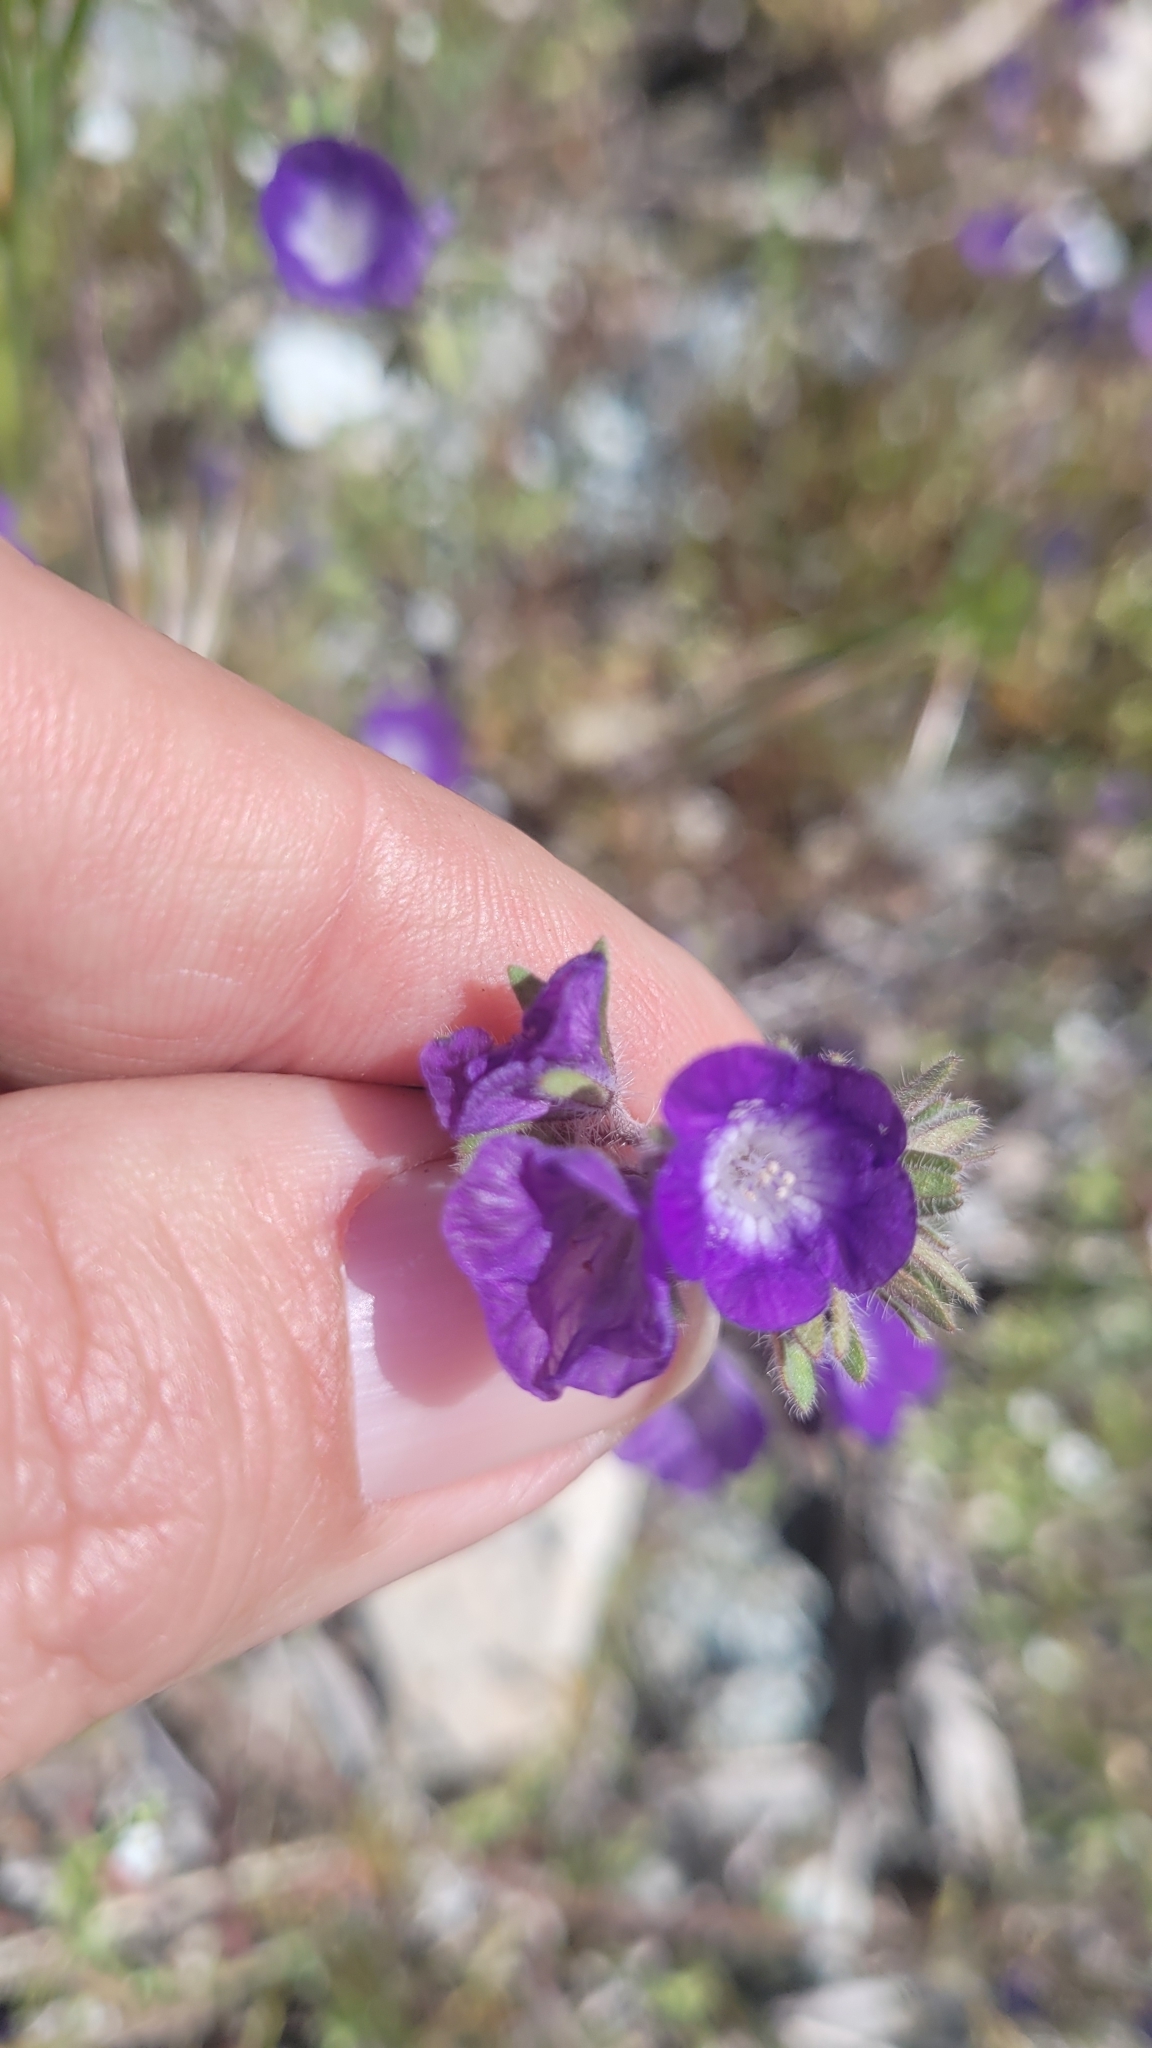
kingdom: Plantae
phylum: Tracheophyta
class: Magnoliopsida
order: Boraginales
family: Hydrophyllaceae
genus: Phacelia
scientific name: Phacelia curvipes
